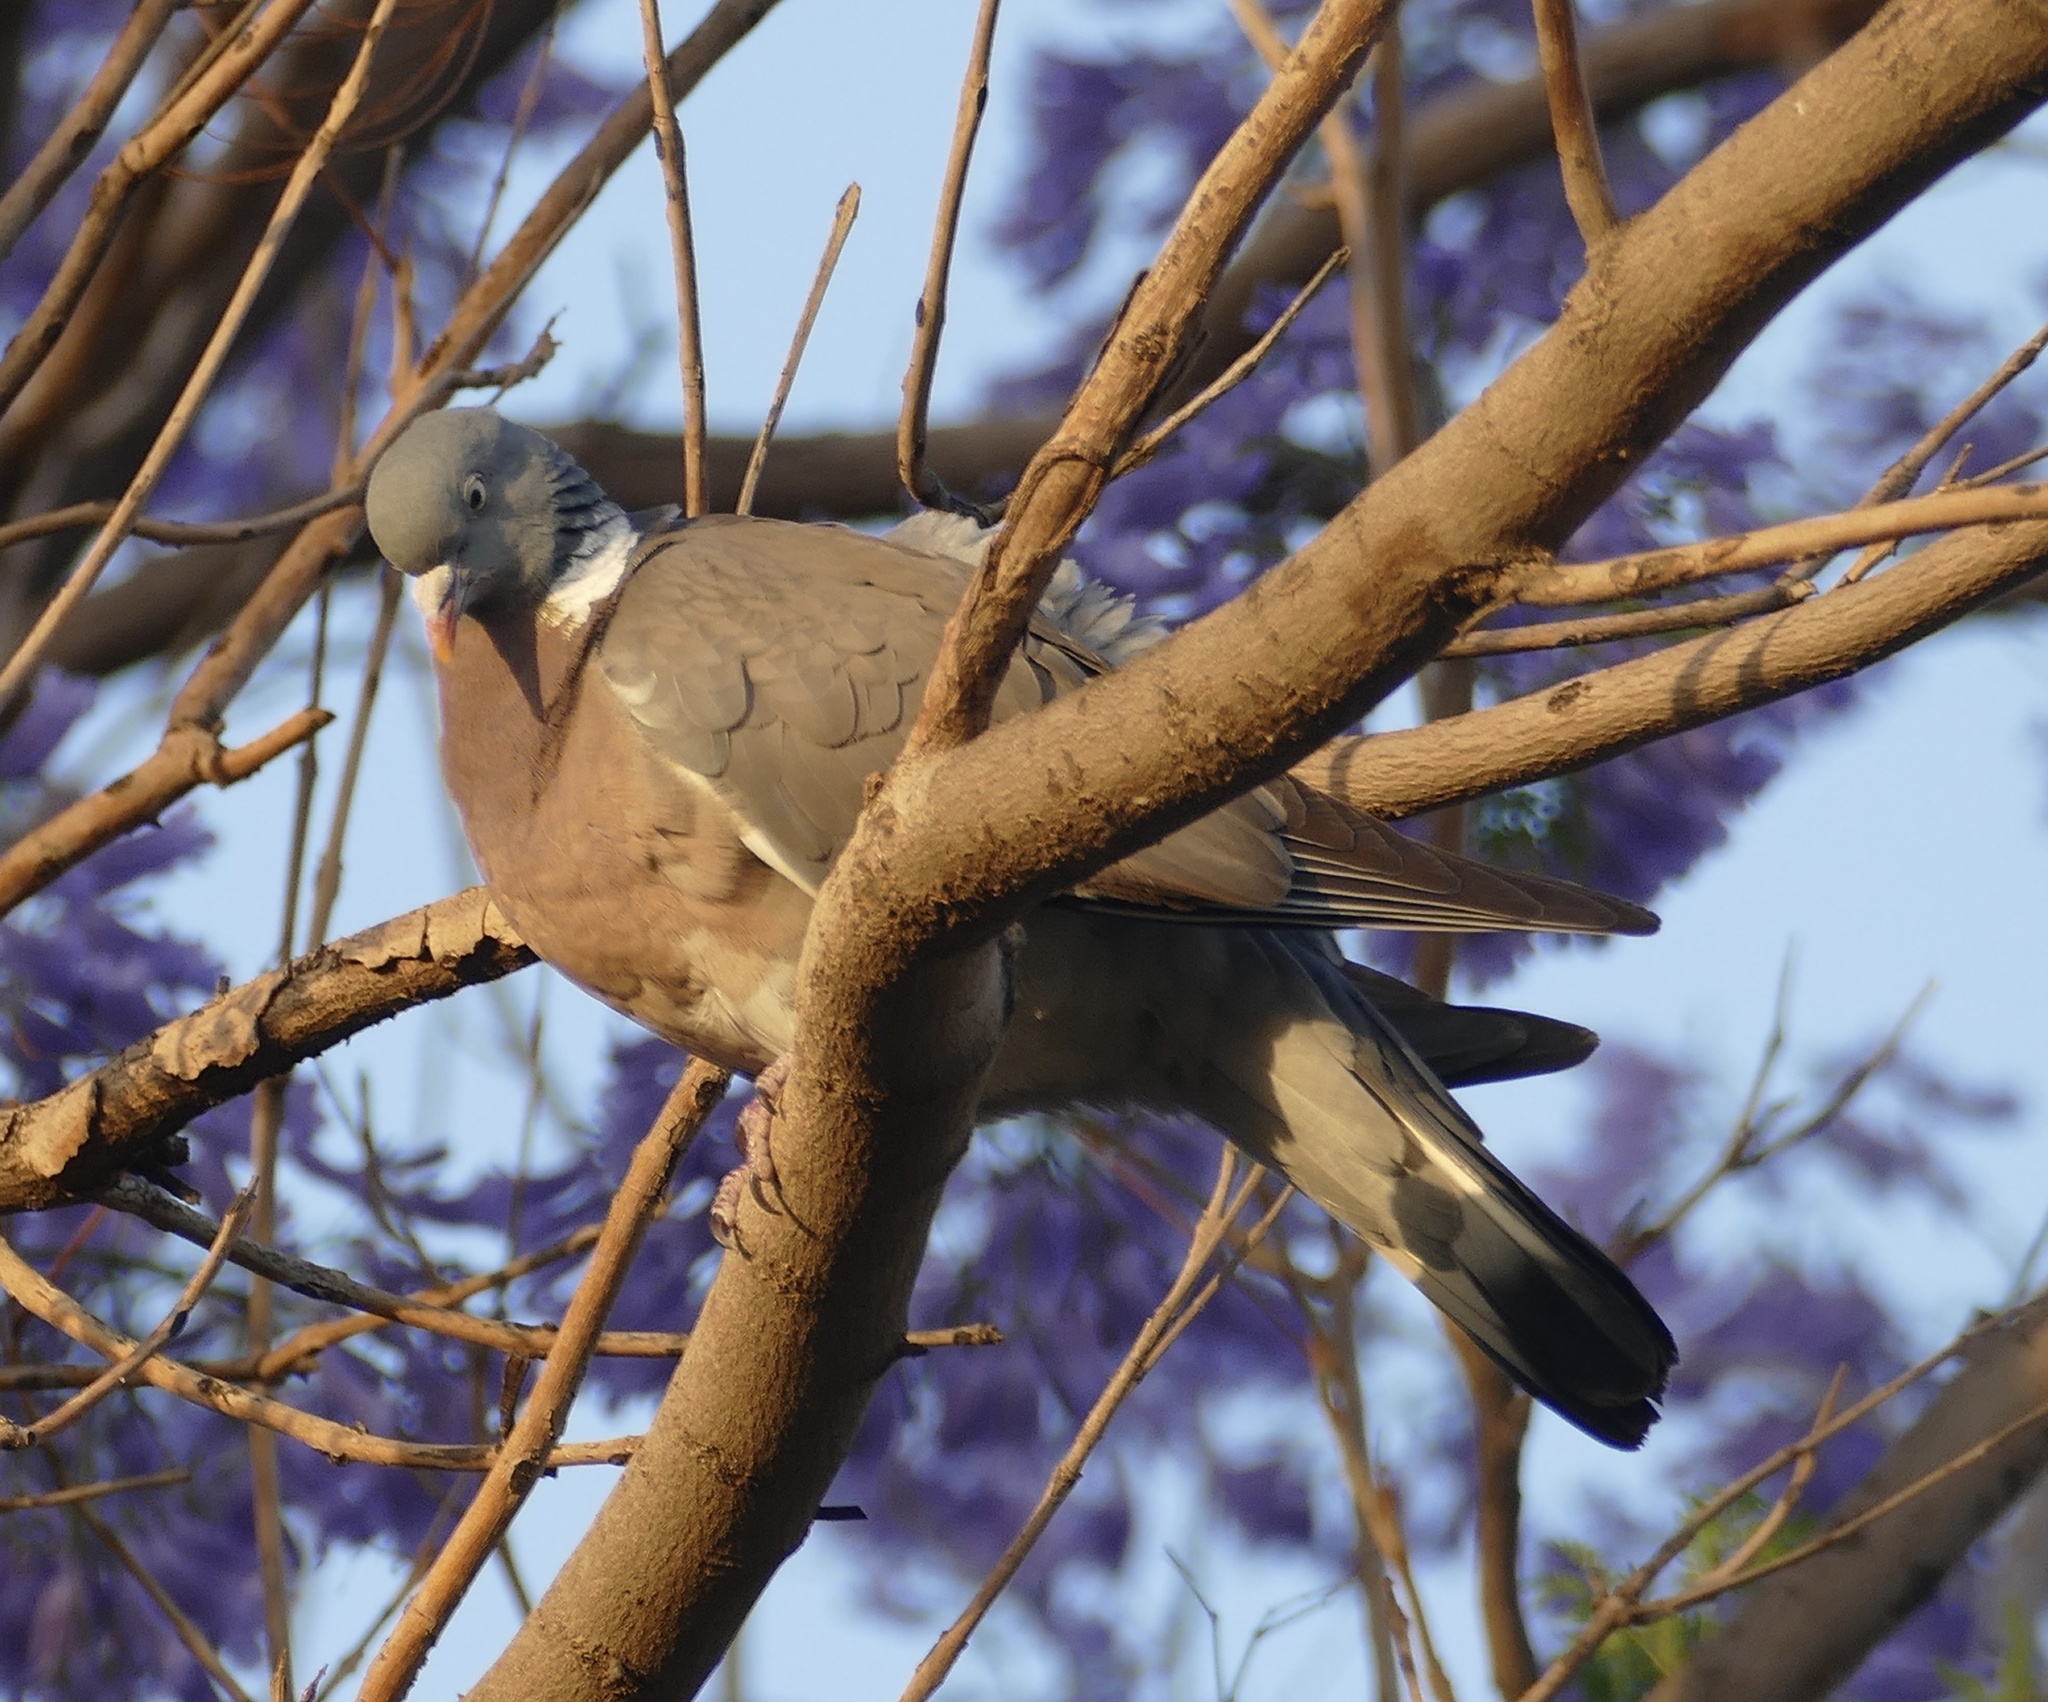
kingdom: Animalia
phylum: Chordata
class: Aves
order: Columbiformes
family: Columbidae
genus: Columba
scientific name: Columba palumbus
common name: Common wood pigeon
